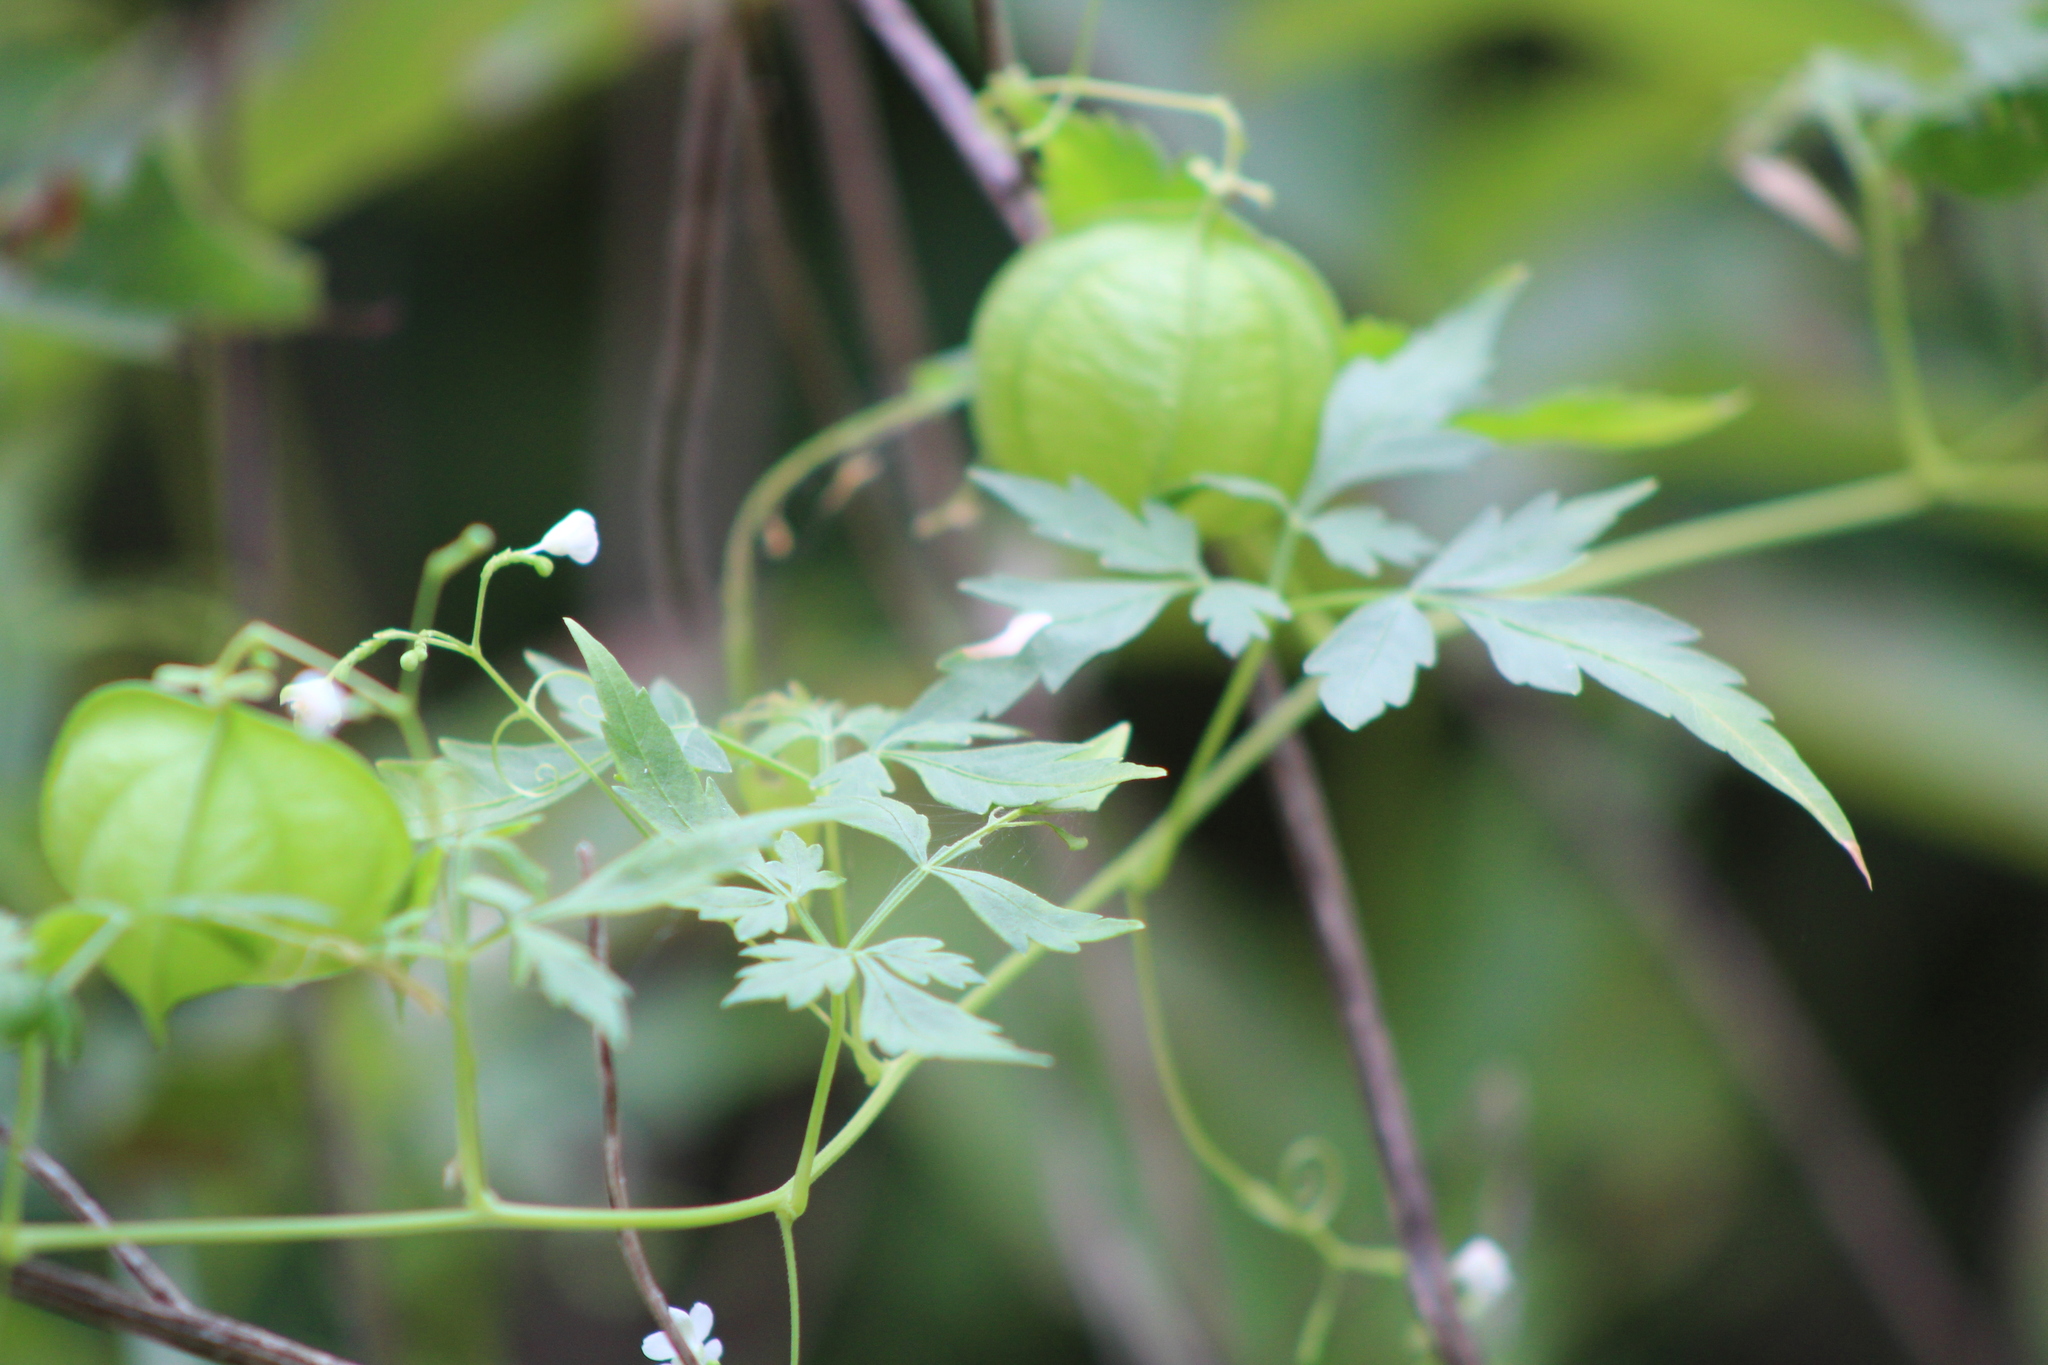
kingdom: Plantae
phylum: Tracheophyta
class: Magnoliopsida
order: Sapindales
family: Sapindaceae
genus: Cardiospermum
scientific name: Cardiospermum halicacabum
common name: Balloon vine
